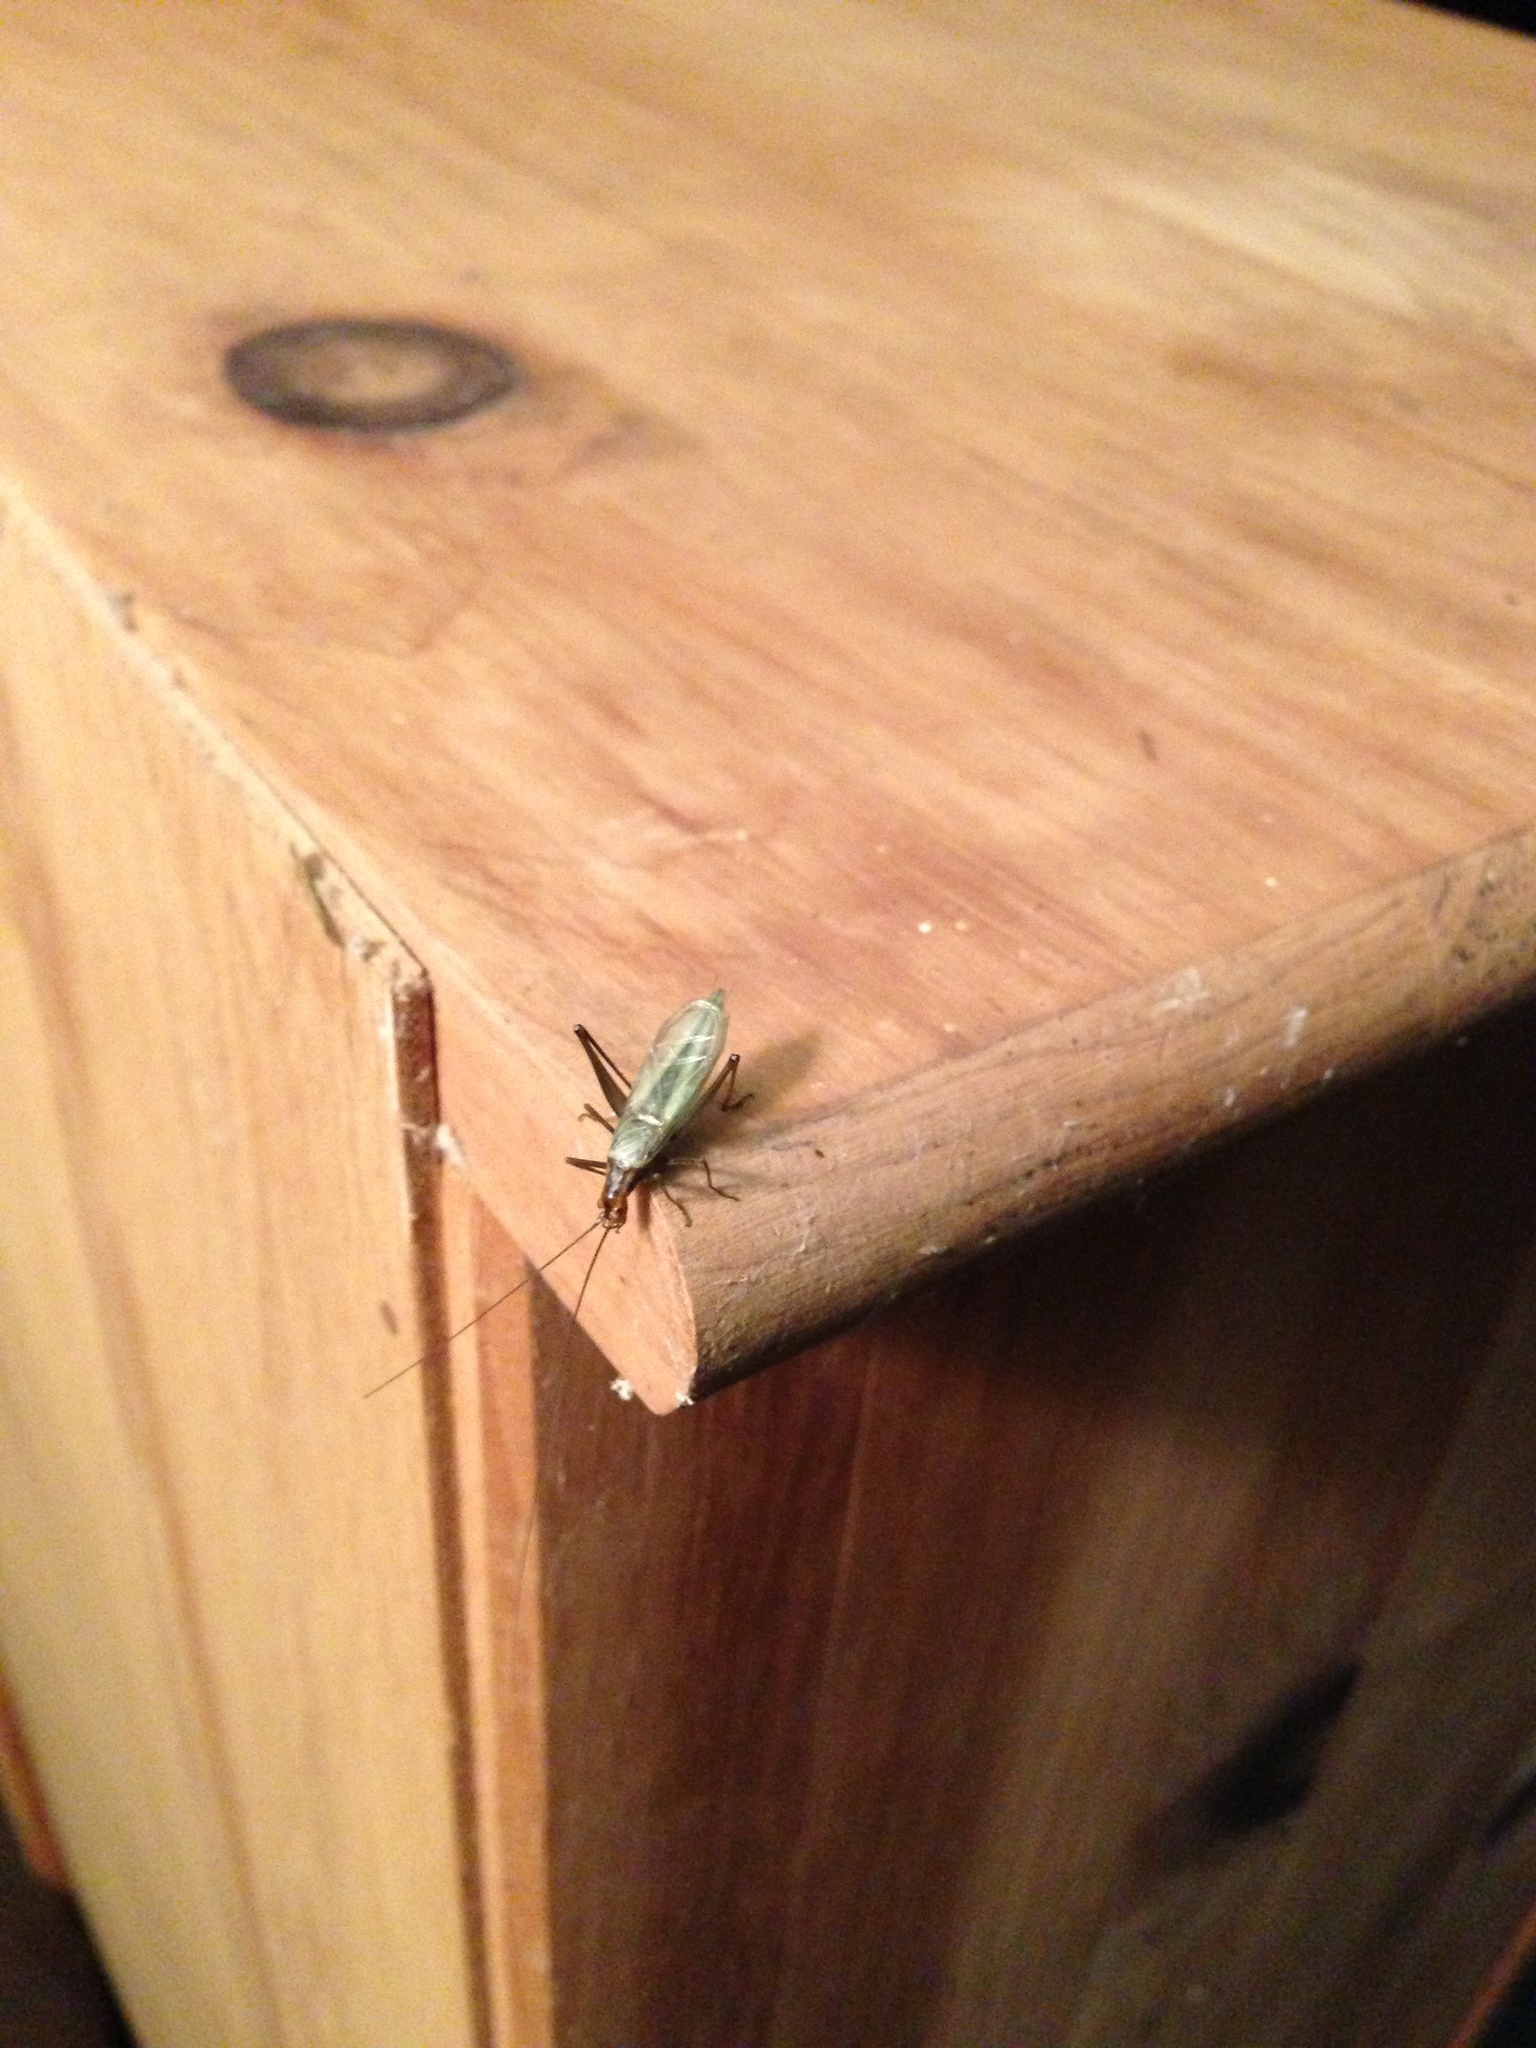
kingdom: Animalia
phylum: Arthropoda
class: Insecta
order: Orthoptera
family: Gryllidae
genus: Oecanthus
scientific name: Oecanthus pini
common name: Pine tree cricket
